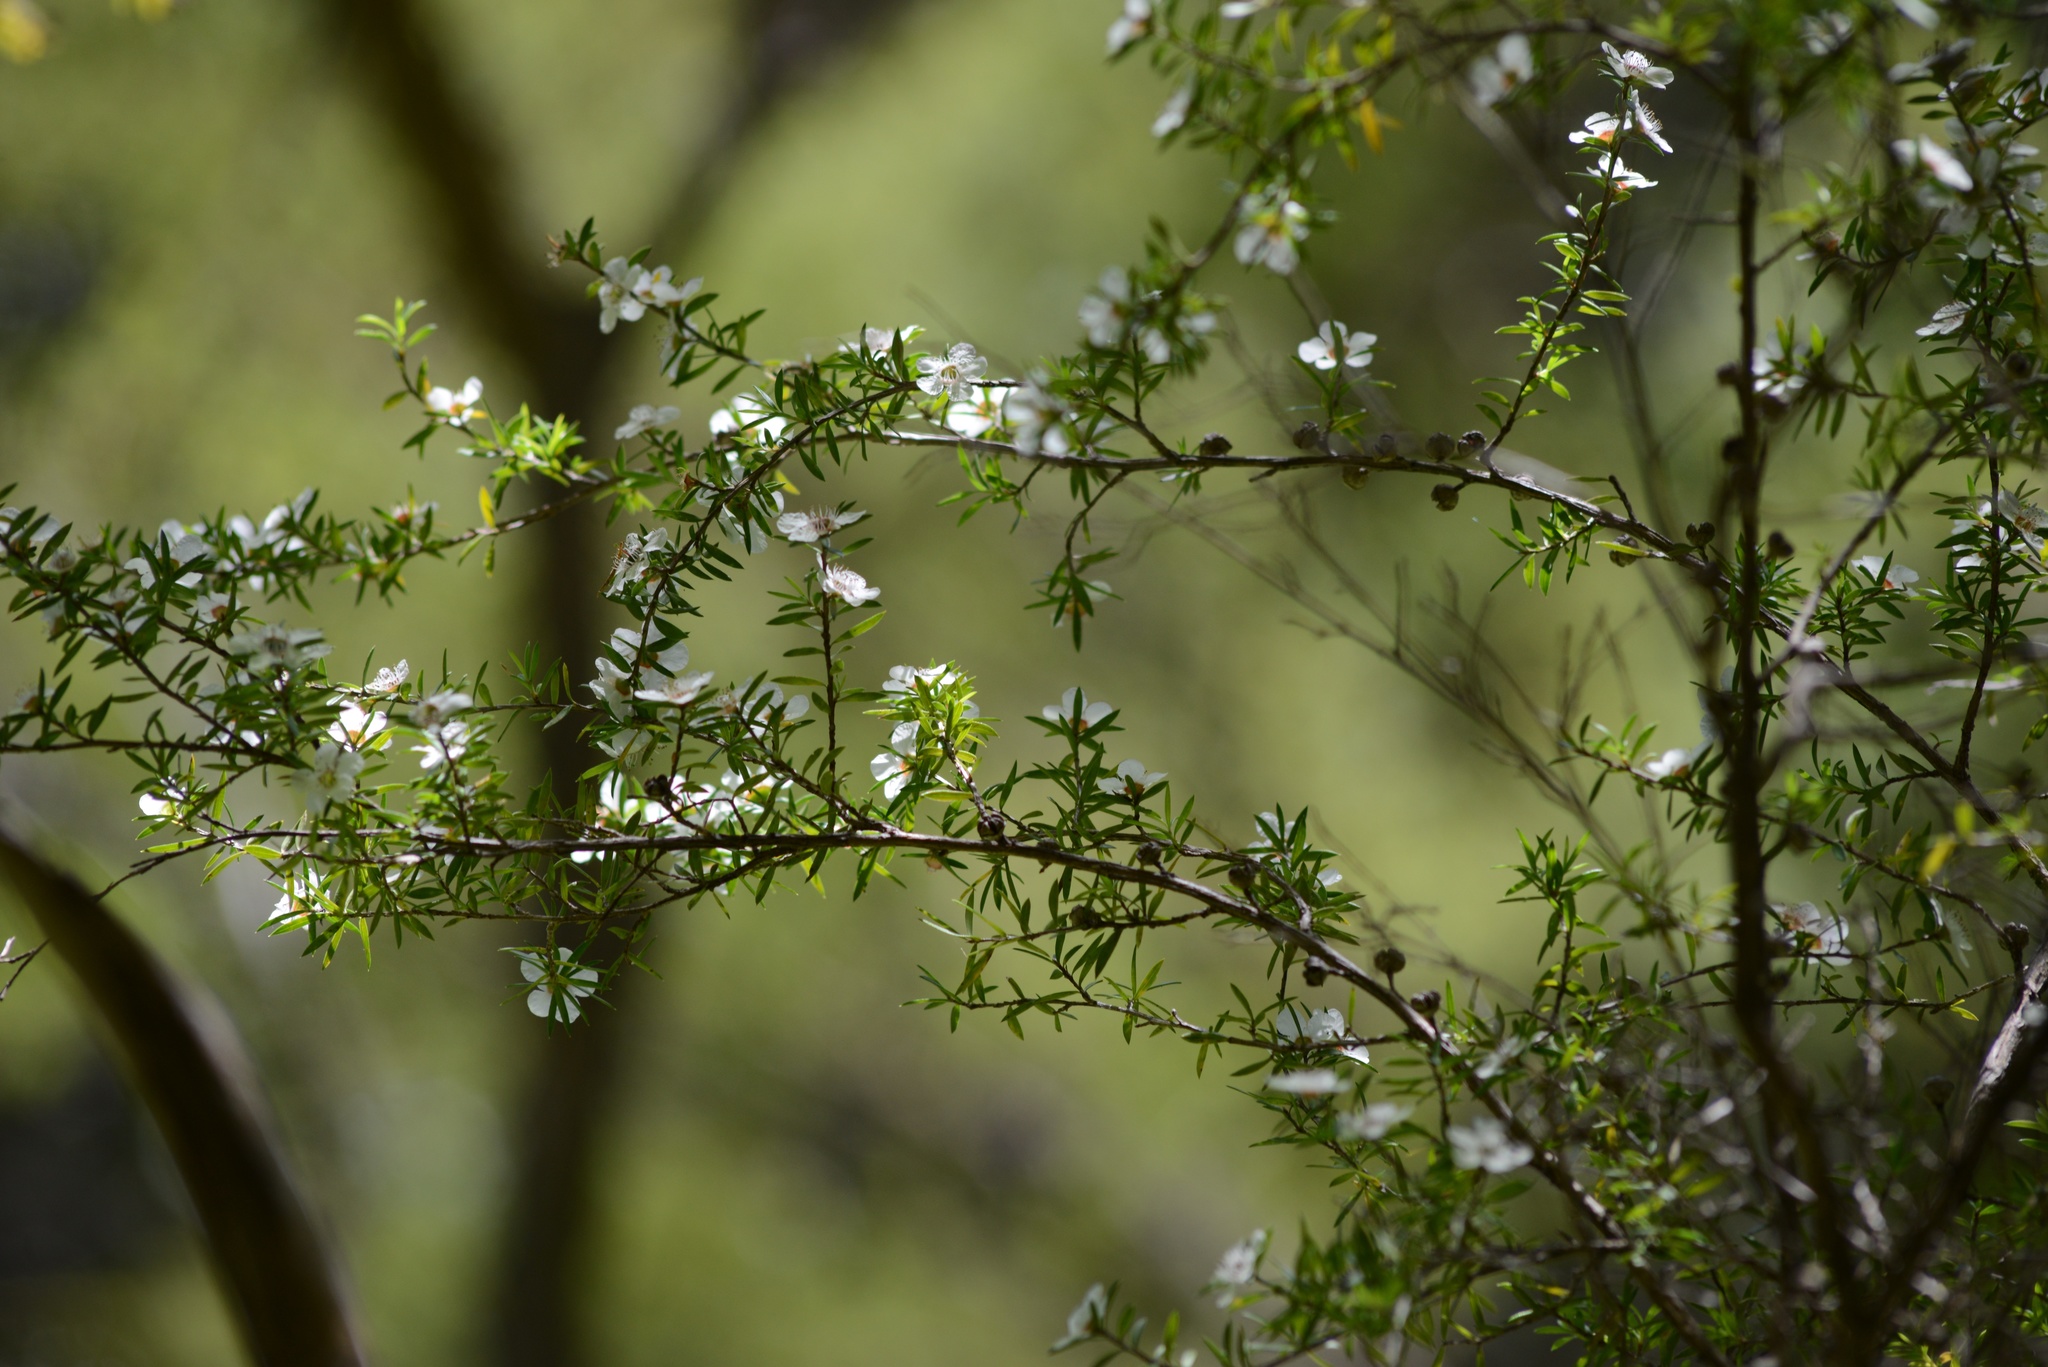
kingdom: Plantae
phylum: Tracheophyta
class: Magnoliopsida
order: Myrtales
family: Myrtaceae
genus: Leptospermum
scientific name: Leptospermum scoparium
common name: Broom tea-tree
